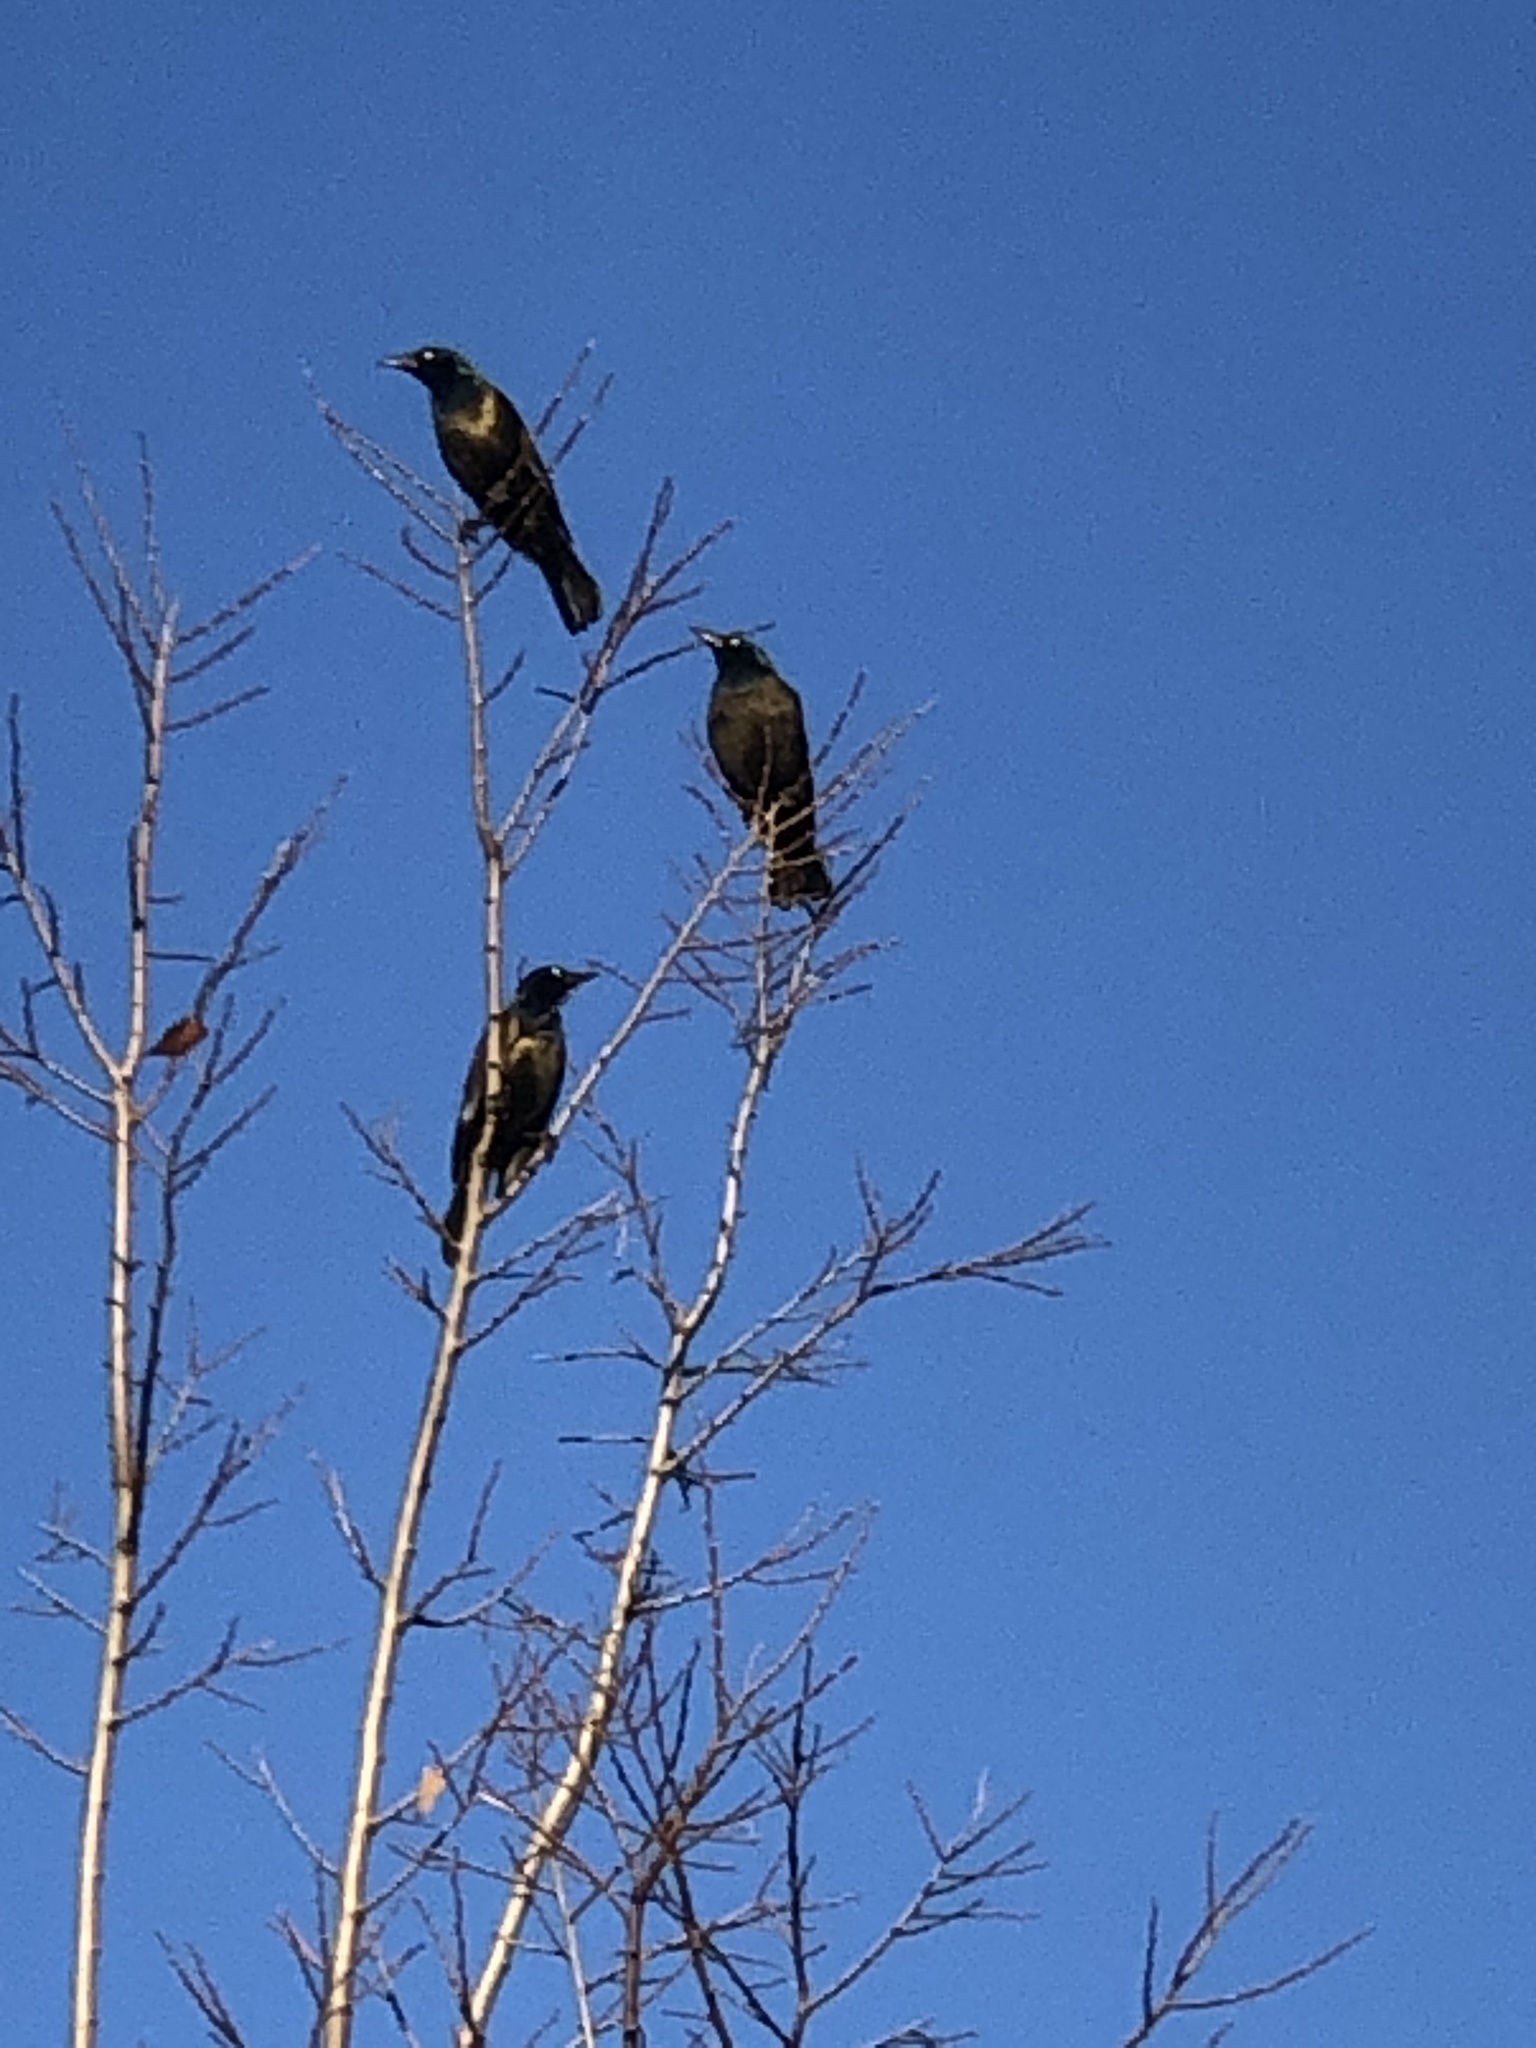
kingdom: Animalia
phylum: Chordata
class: Aves
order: Passeriformes
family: Icteridae
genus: Quiscalus
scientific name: Quiscalus quiscula
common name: Common grackle
